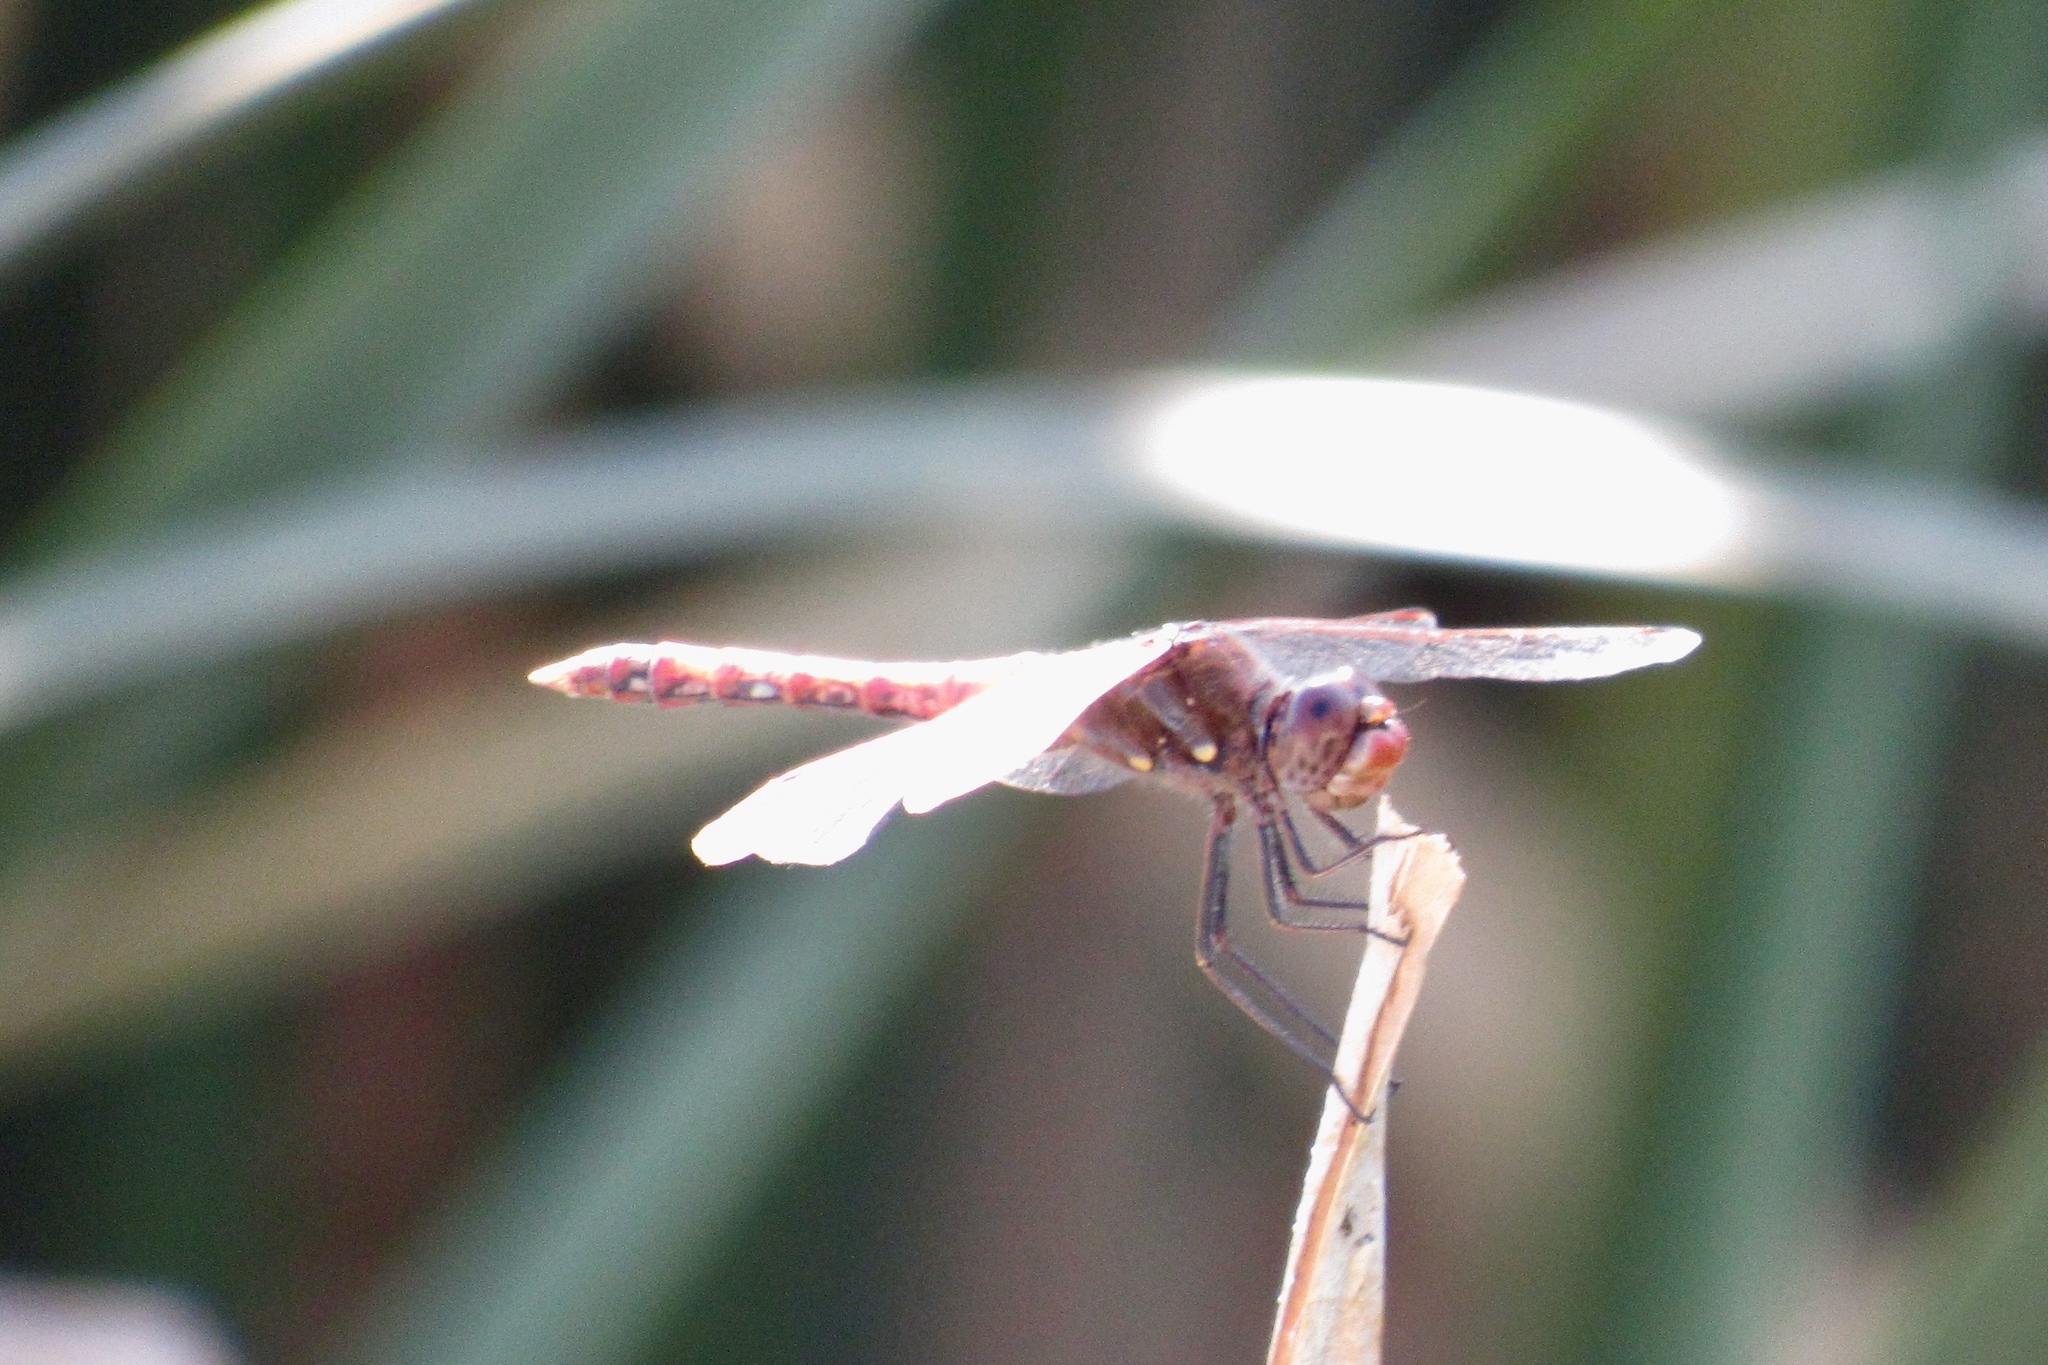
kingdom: Animalia
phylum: Arthropoda
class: Insecta
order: Odonata
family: Libellulidae
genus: Sympetrum
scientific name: Sympetrum corruptum
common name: Variegated meadowhawk
